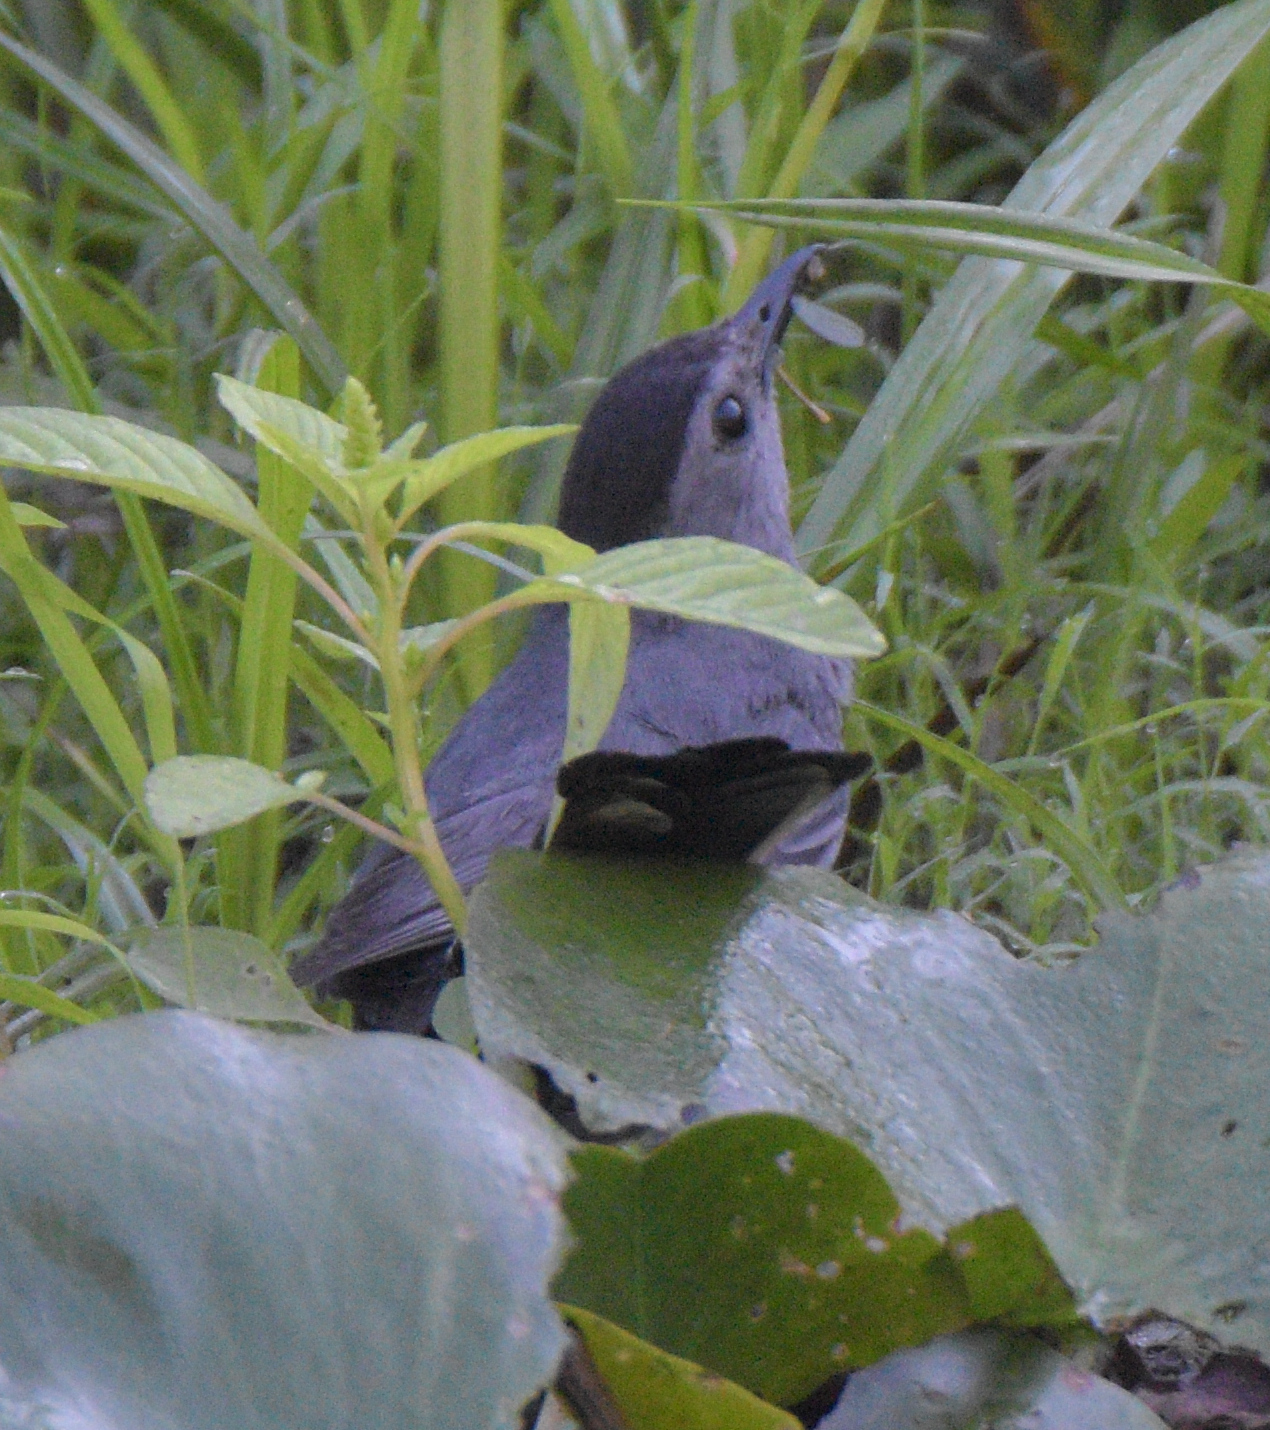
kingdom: Animalia
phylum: Chordata
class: Aves
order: Passeriformes
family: Mimidae
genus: Dumetella
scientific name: Dumetella carolinensis
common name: Gray catbird
